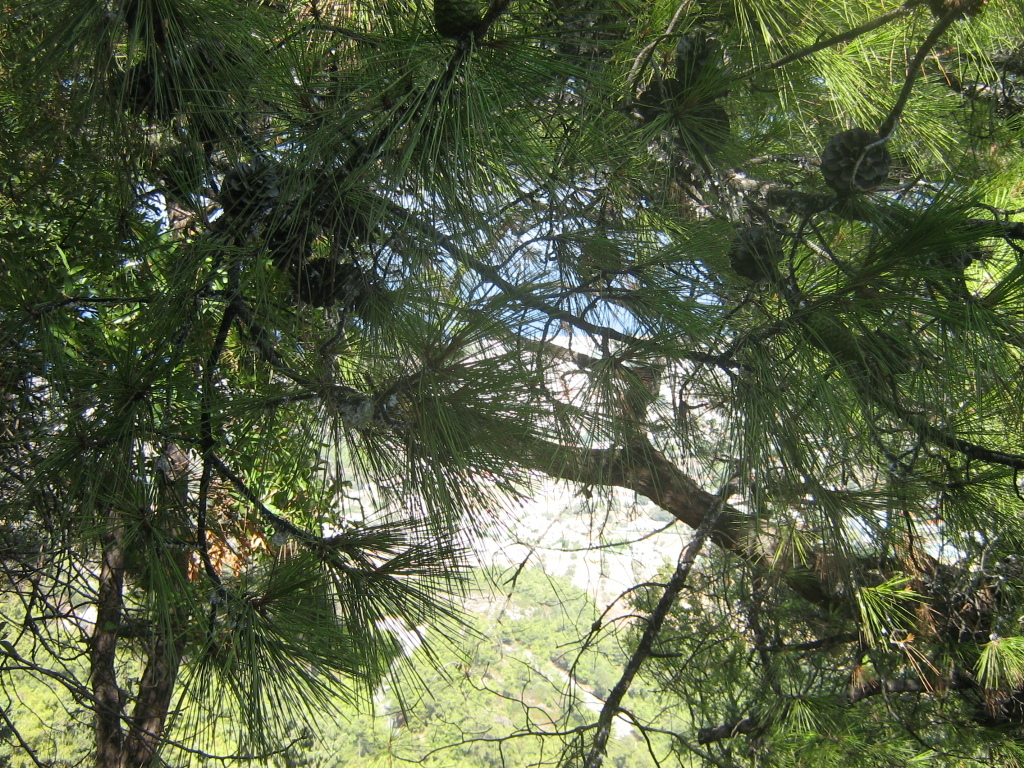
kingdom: Plantae
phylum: Tracheophyta
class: Pinopsida
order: Pinales
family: Pinaceae
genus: Pinus
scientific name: Pinus
